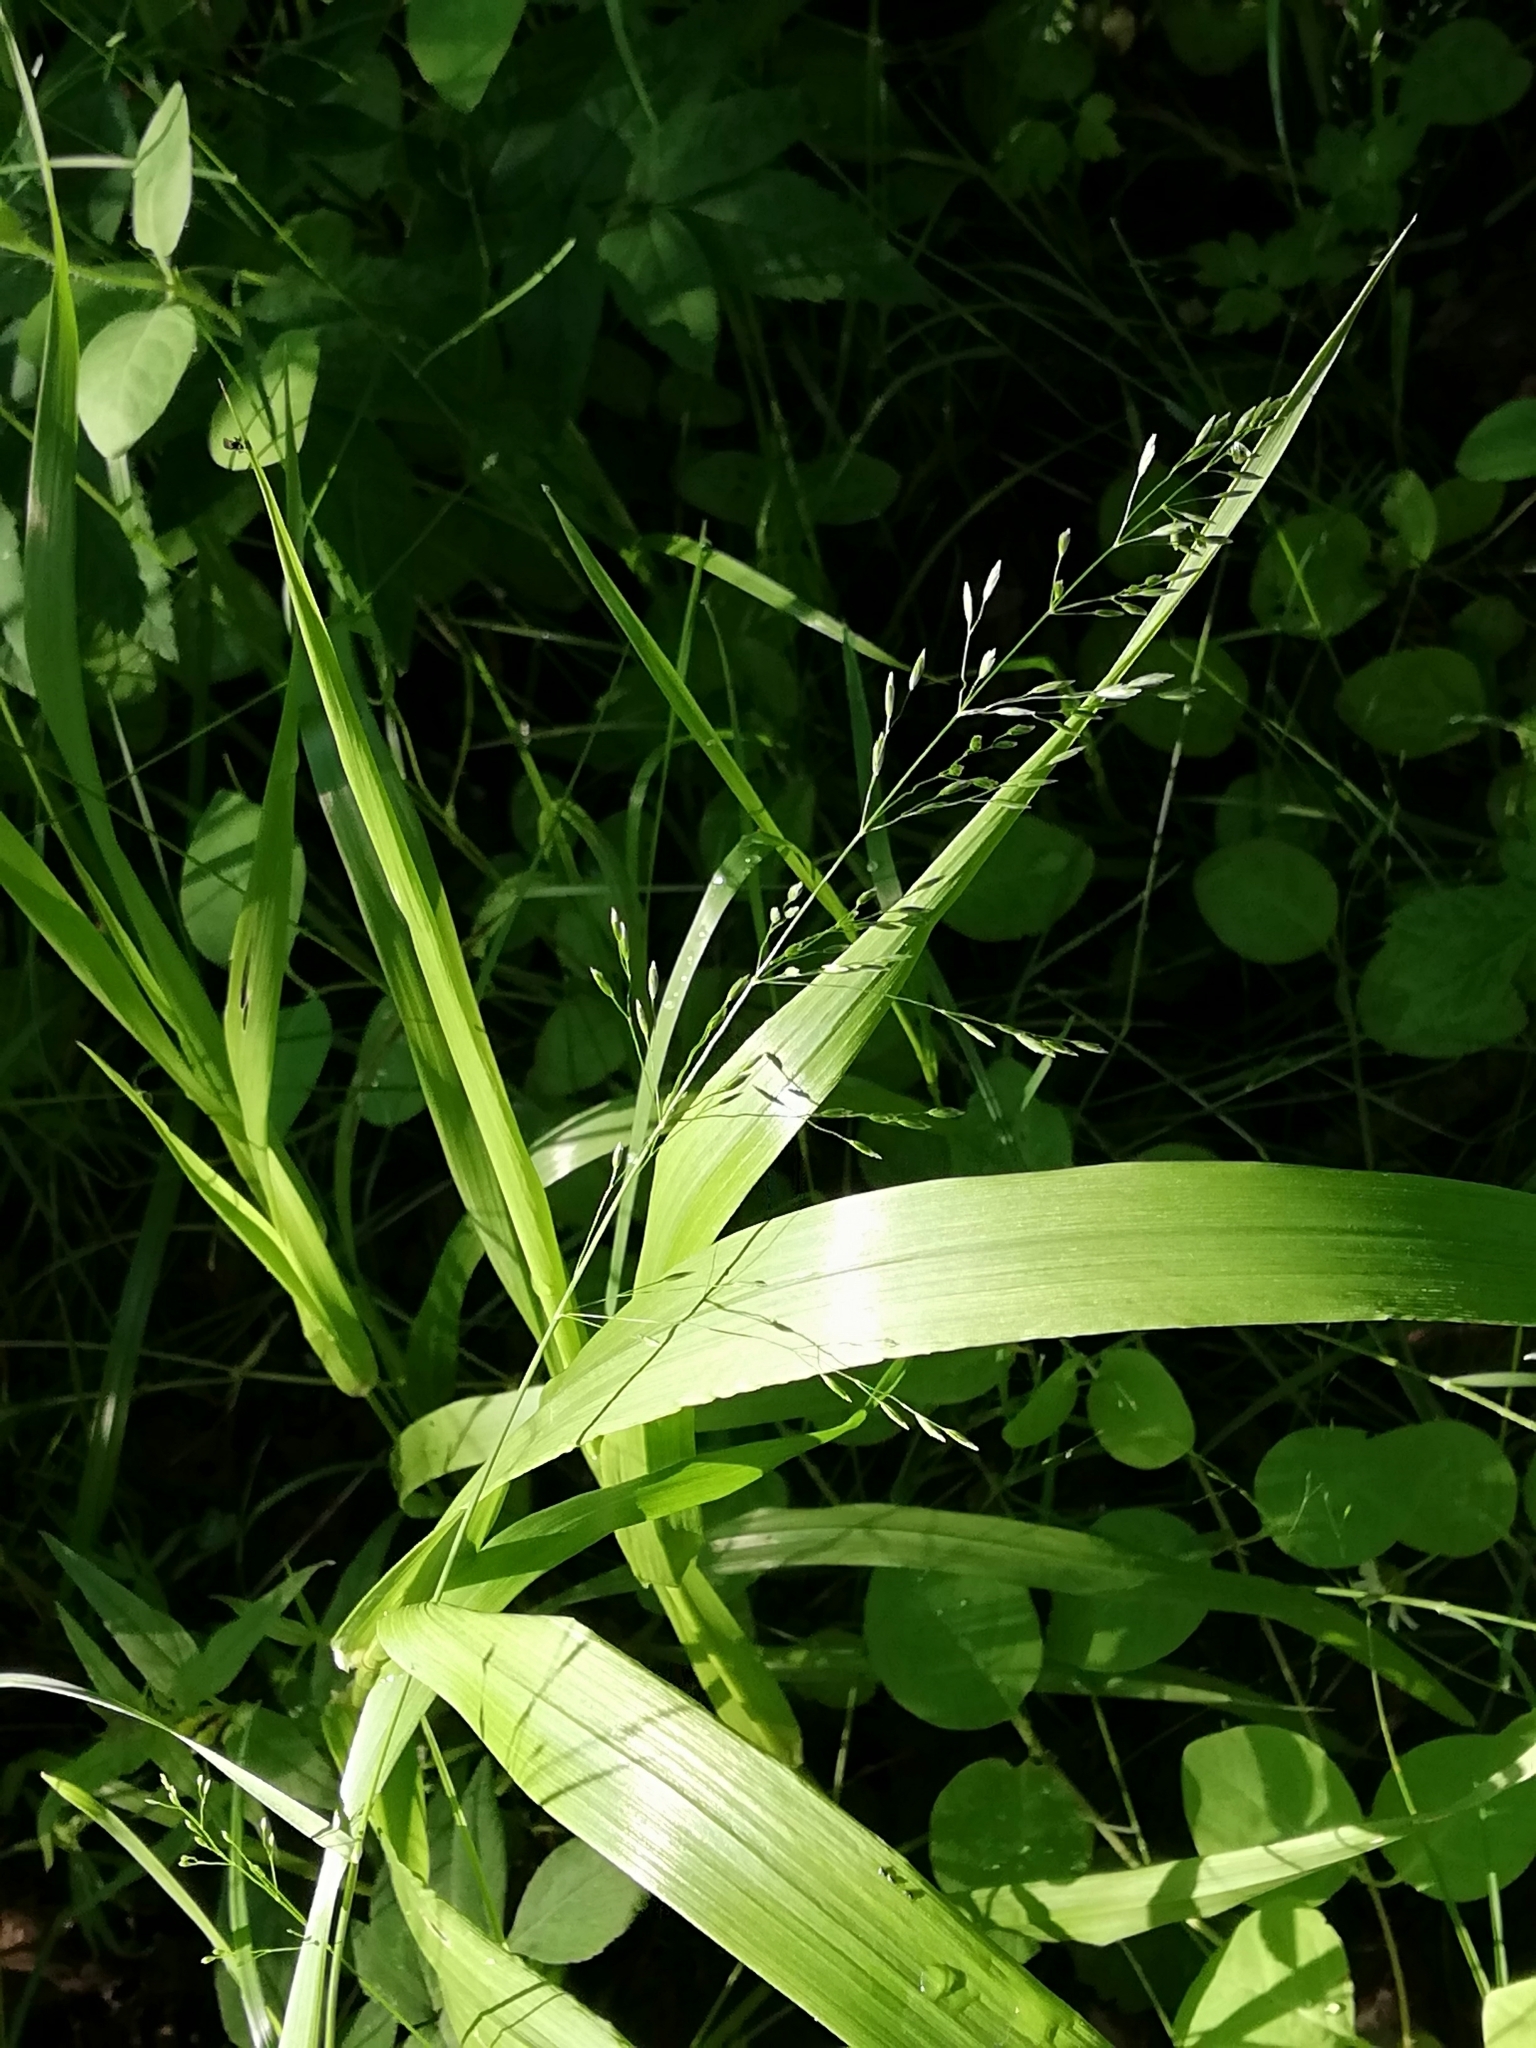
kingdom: Plantae
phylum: Tracheophyta
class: Liliopsida
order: Poales
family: Poaceae
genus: Milium
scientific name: Milium effusum
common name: Wood millet
